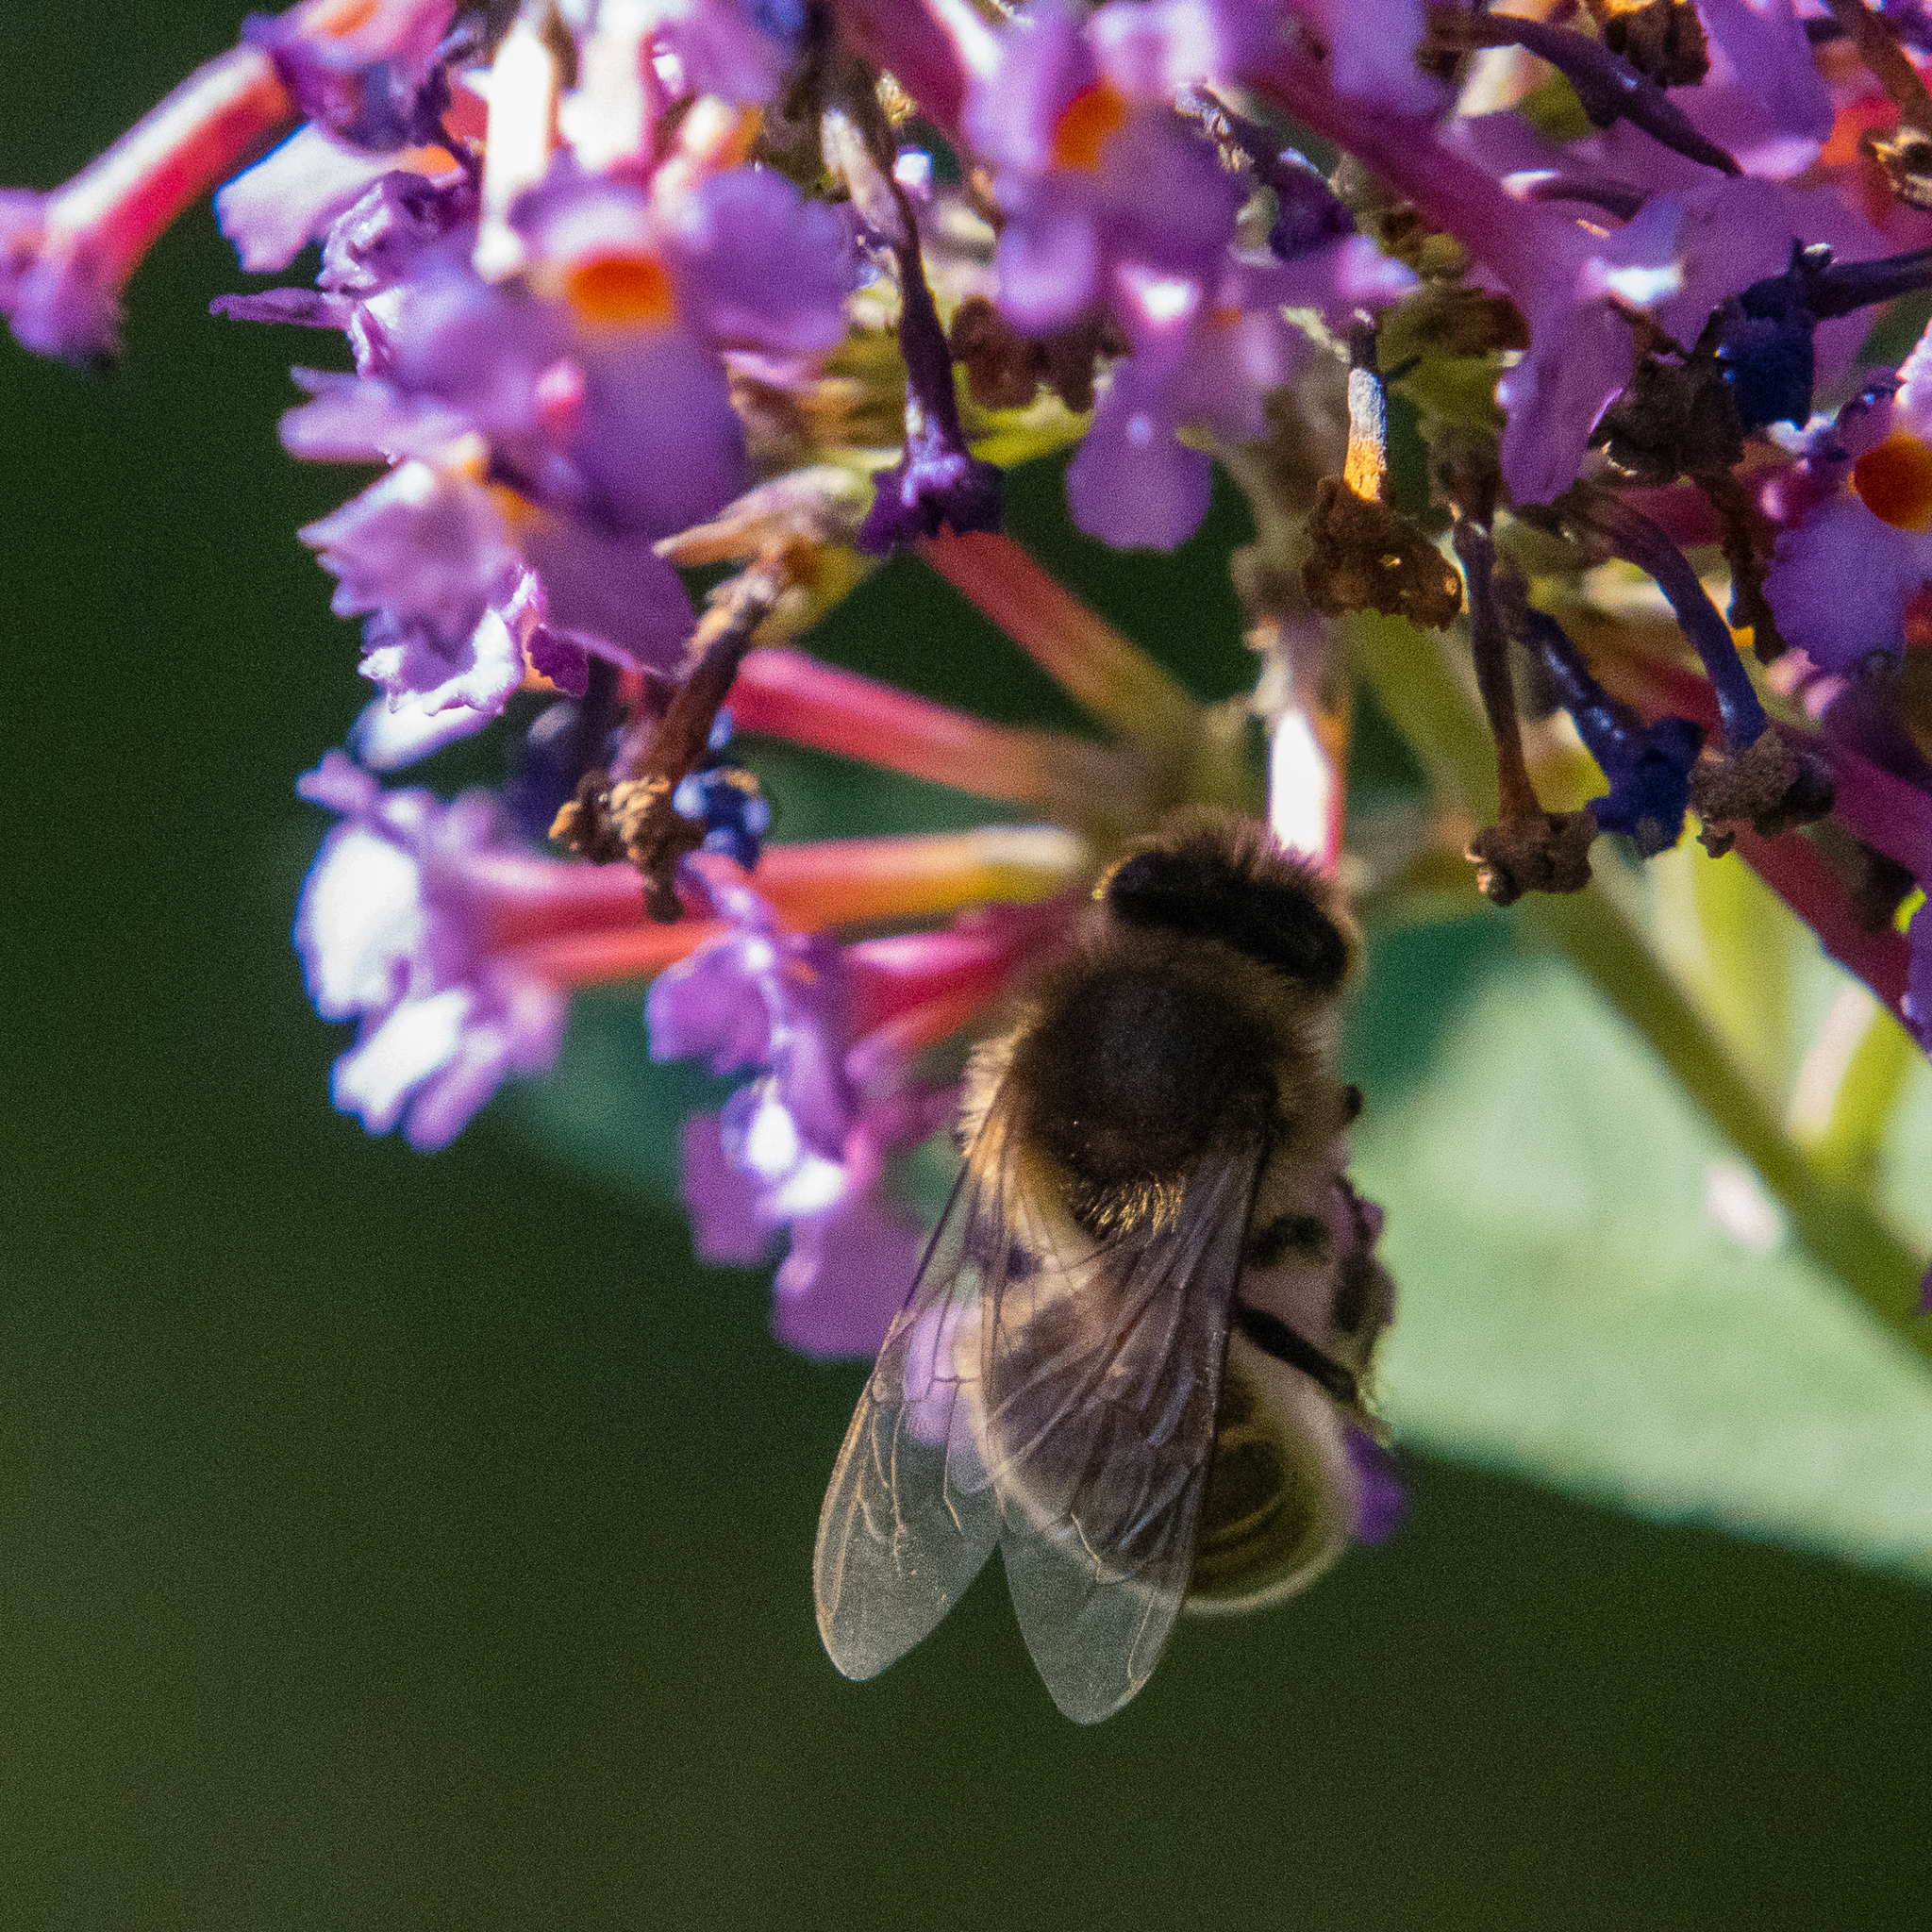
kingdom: Animalia
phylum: Arthropoda
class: Insecta
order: Hymenoptera
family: Apidae
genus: Apis
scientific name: Apis mellifera
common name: Honey bee
